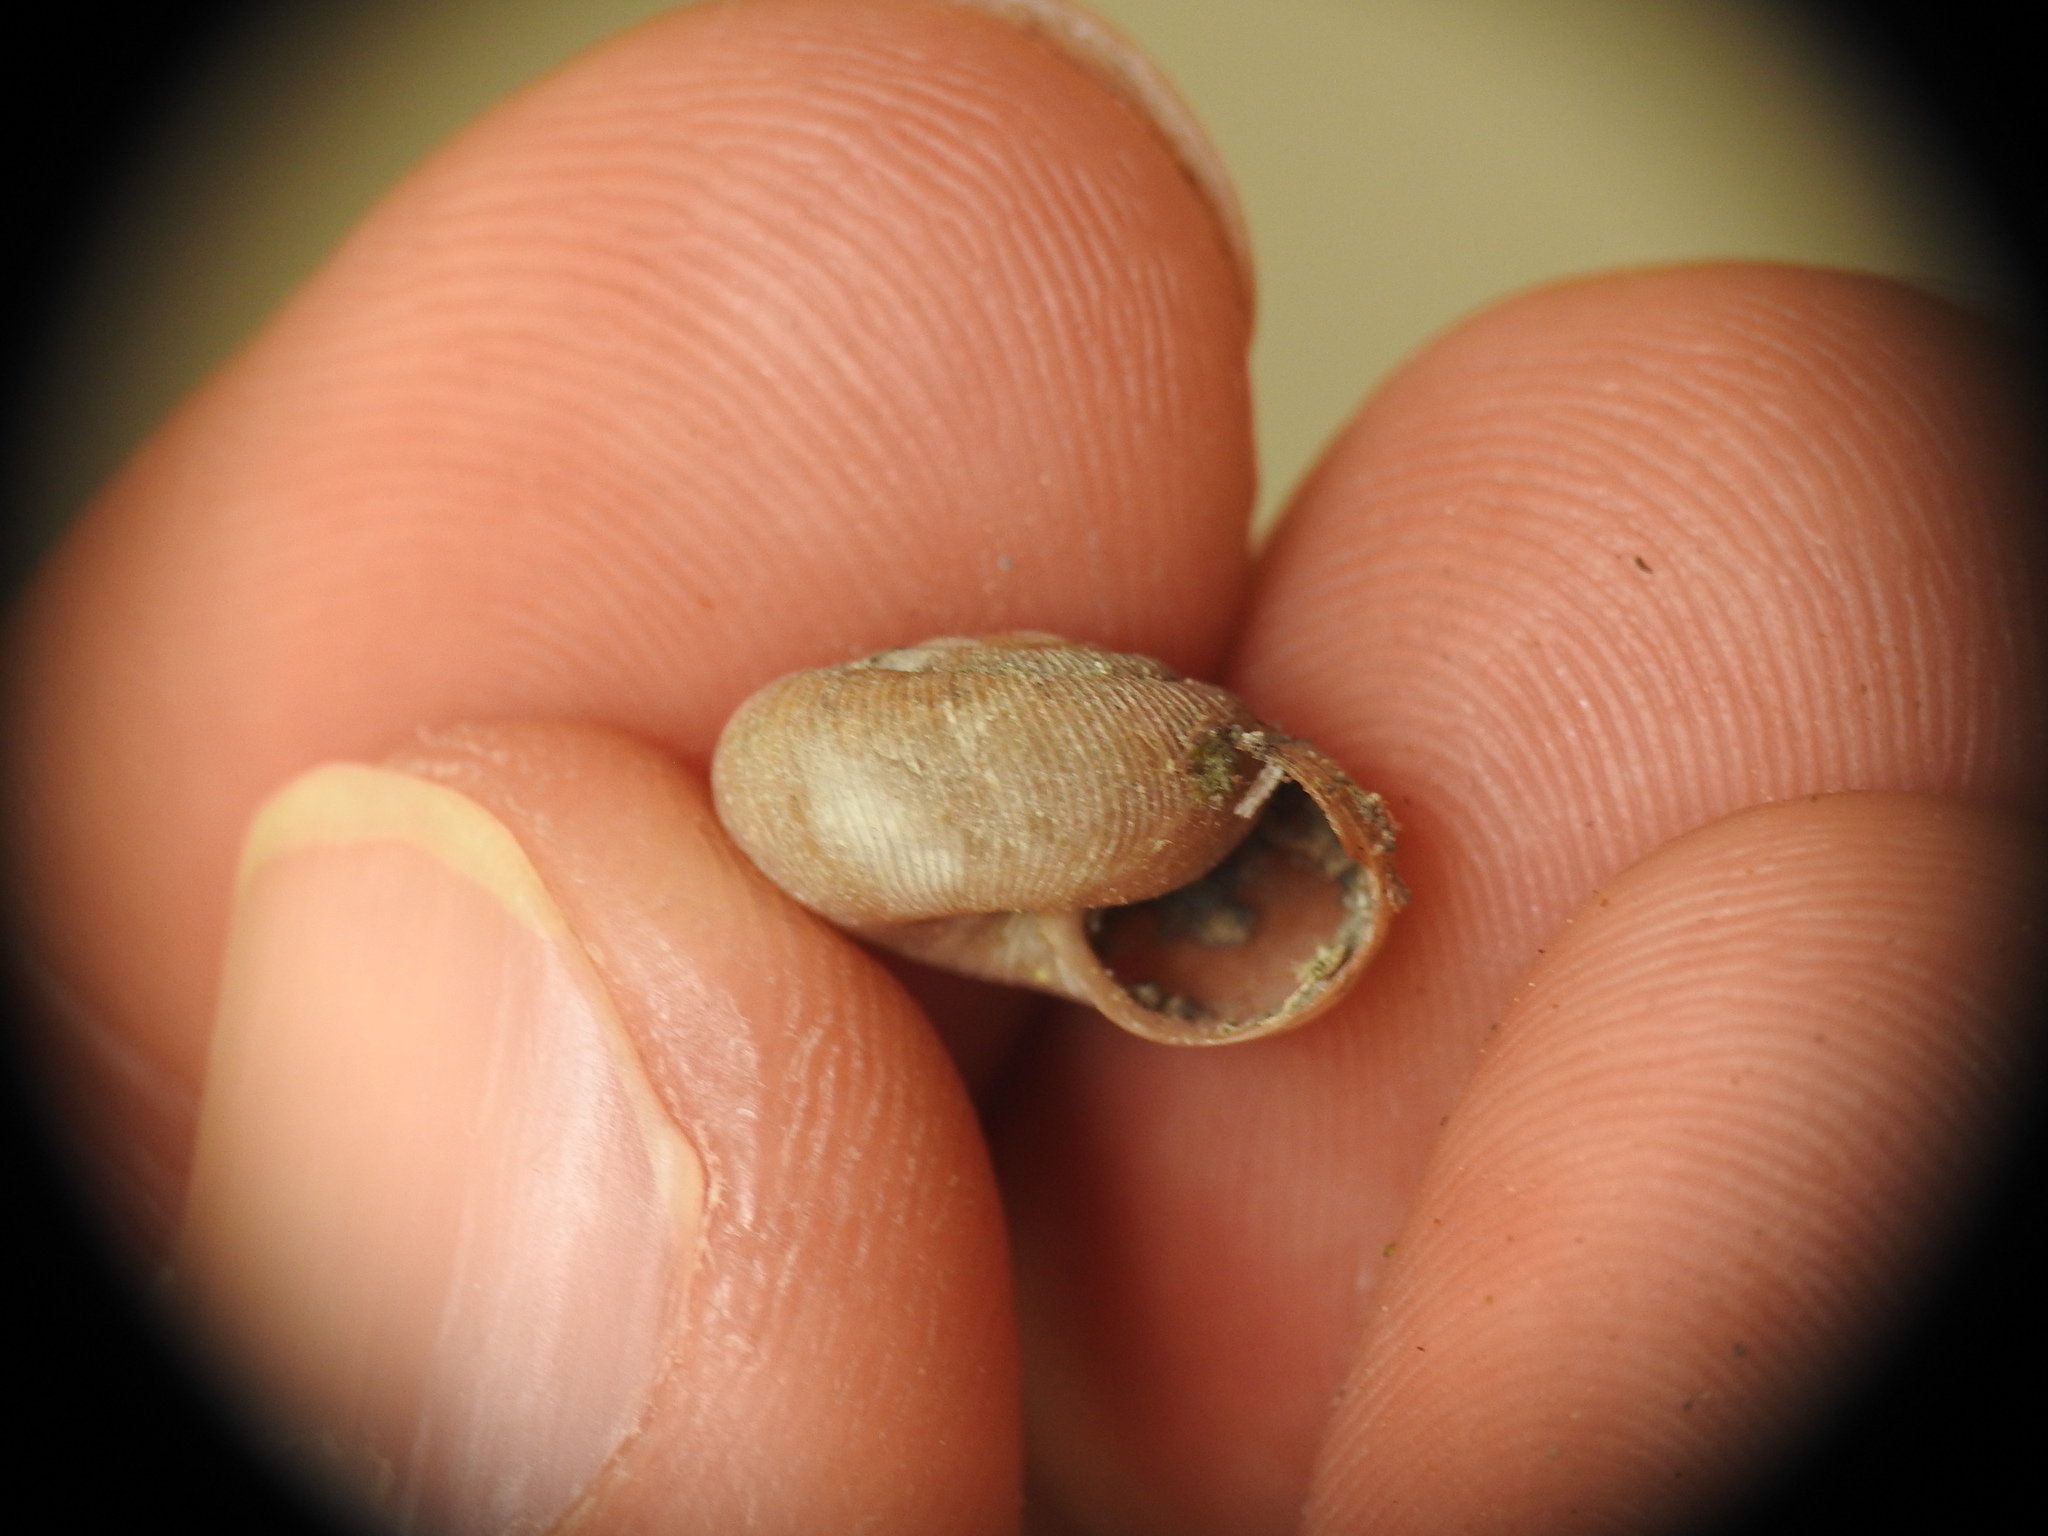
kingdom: Animalia
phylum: Mollusca
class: Gastropoda
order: Stylommatophora
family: Geomitridae
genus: Xerotricha
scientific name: Xerotricha conspurcata
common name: Snail
